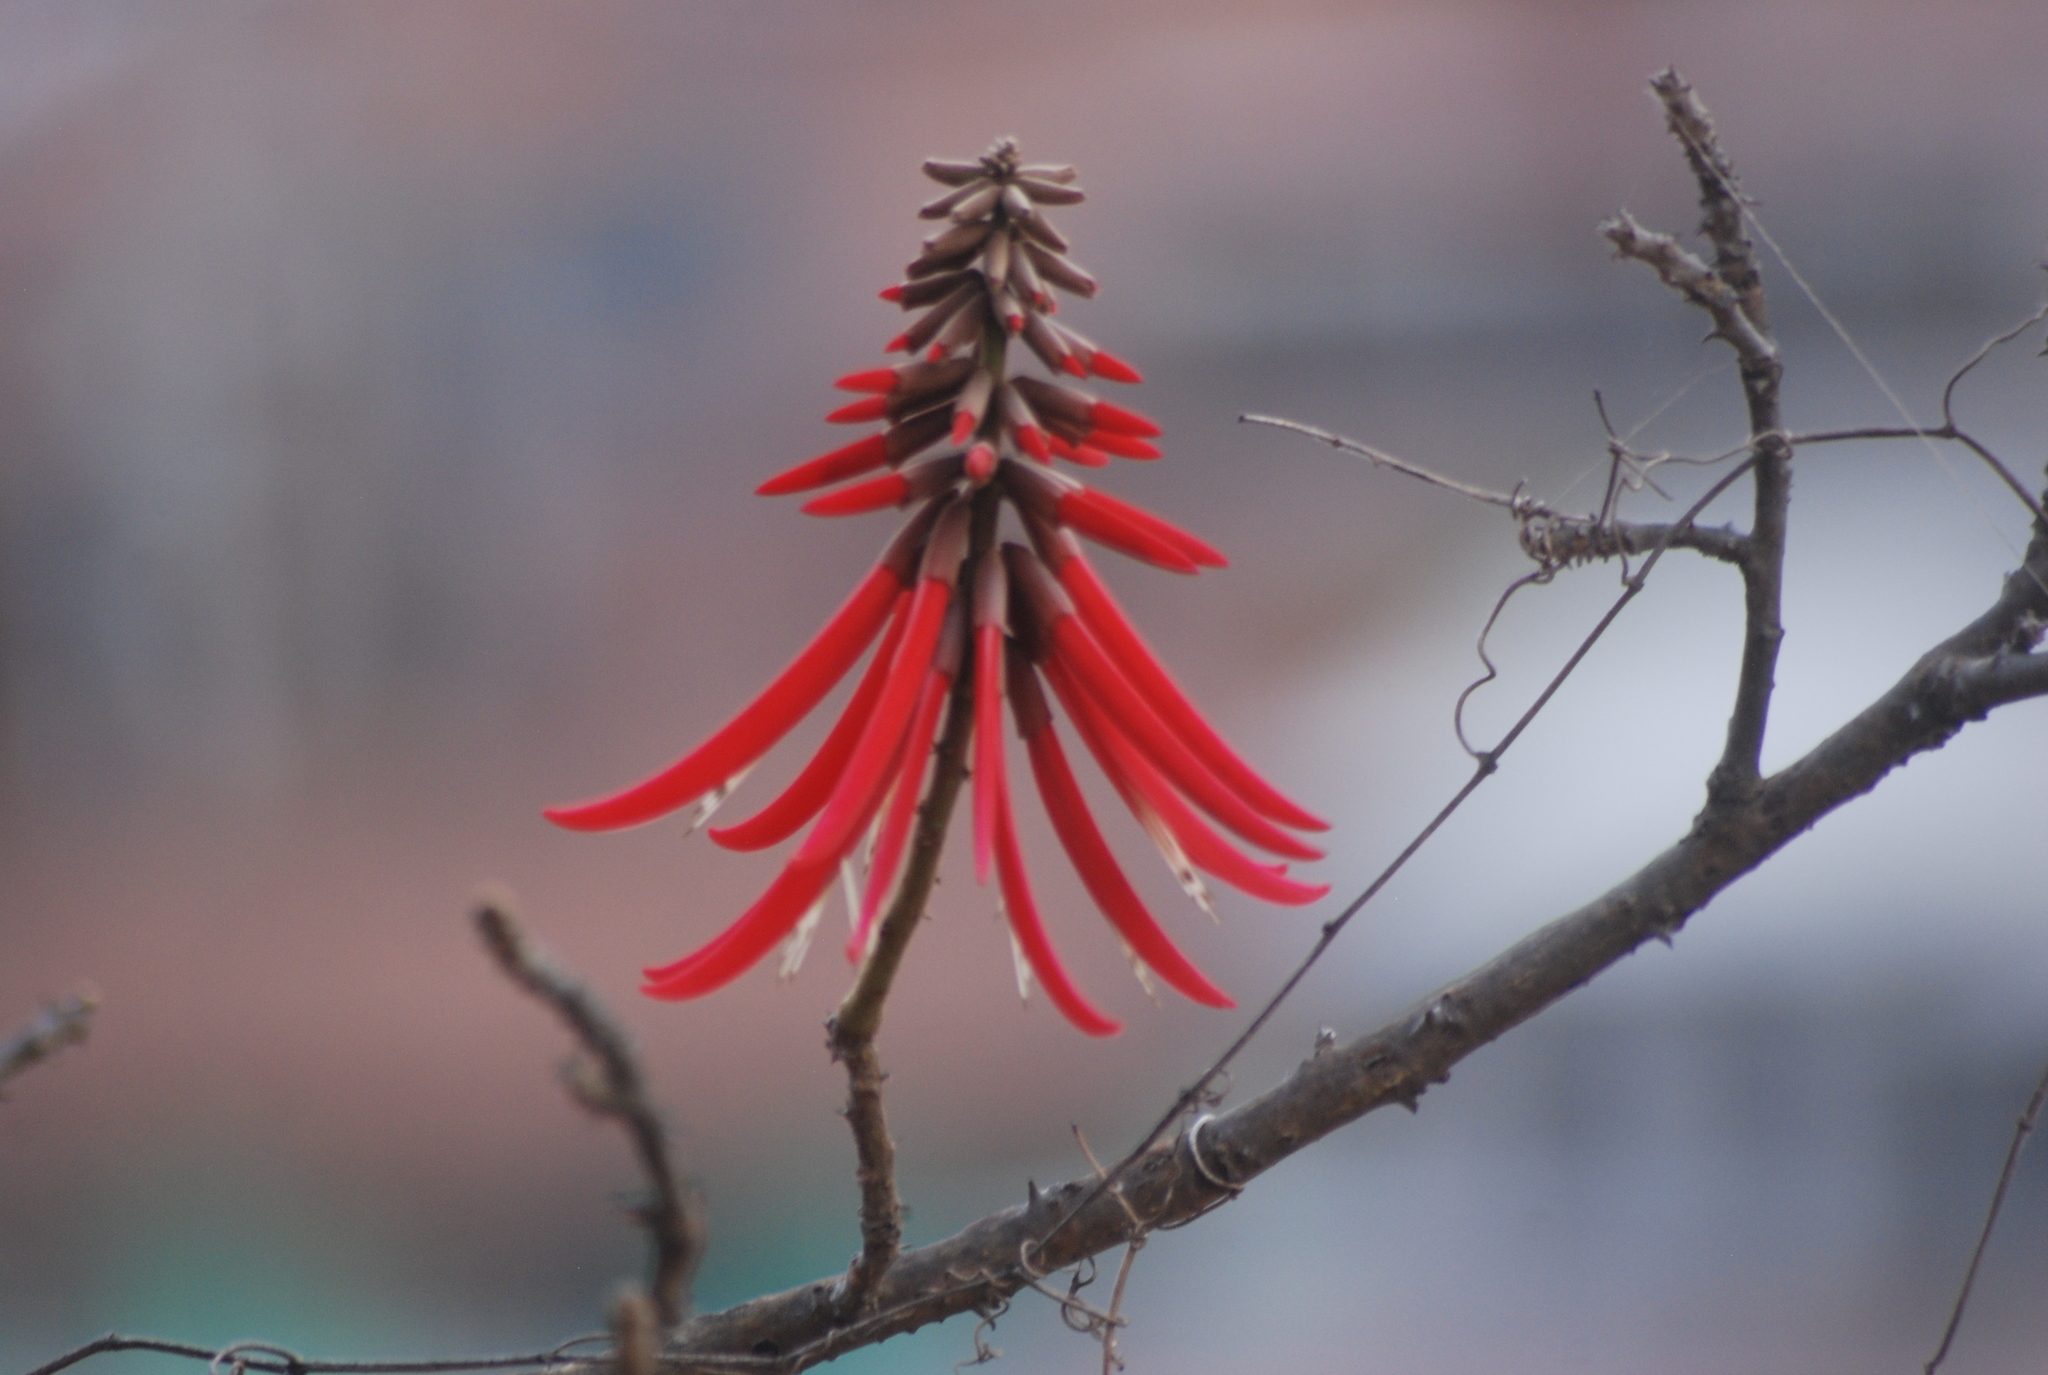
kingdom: Plantae
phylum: Tracheophyta
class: Magnoliopsida
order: Fabales
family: Fabaceae
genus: Erythrina
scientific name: Erythrina americana
